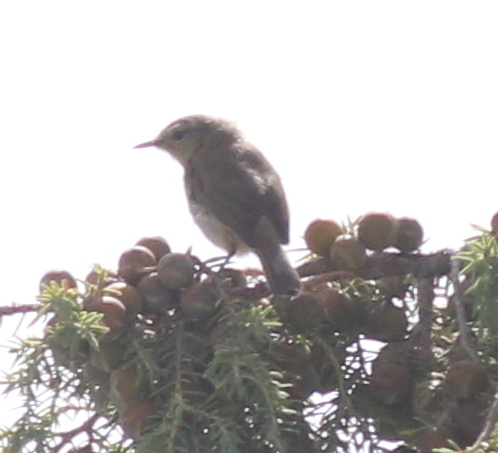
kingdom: Animalia
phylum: Chordata
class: Aves
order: Passeriformes
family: Phylloscopidae
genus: Phylloscopus
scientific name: Phylloscopus canariensis
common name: Canary islands chiffchaff
